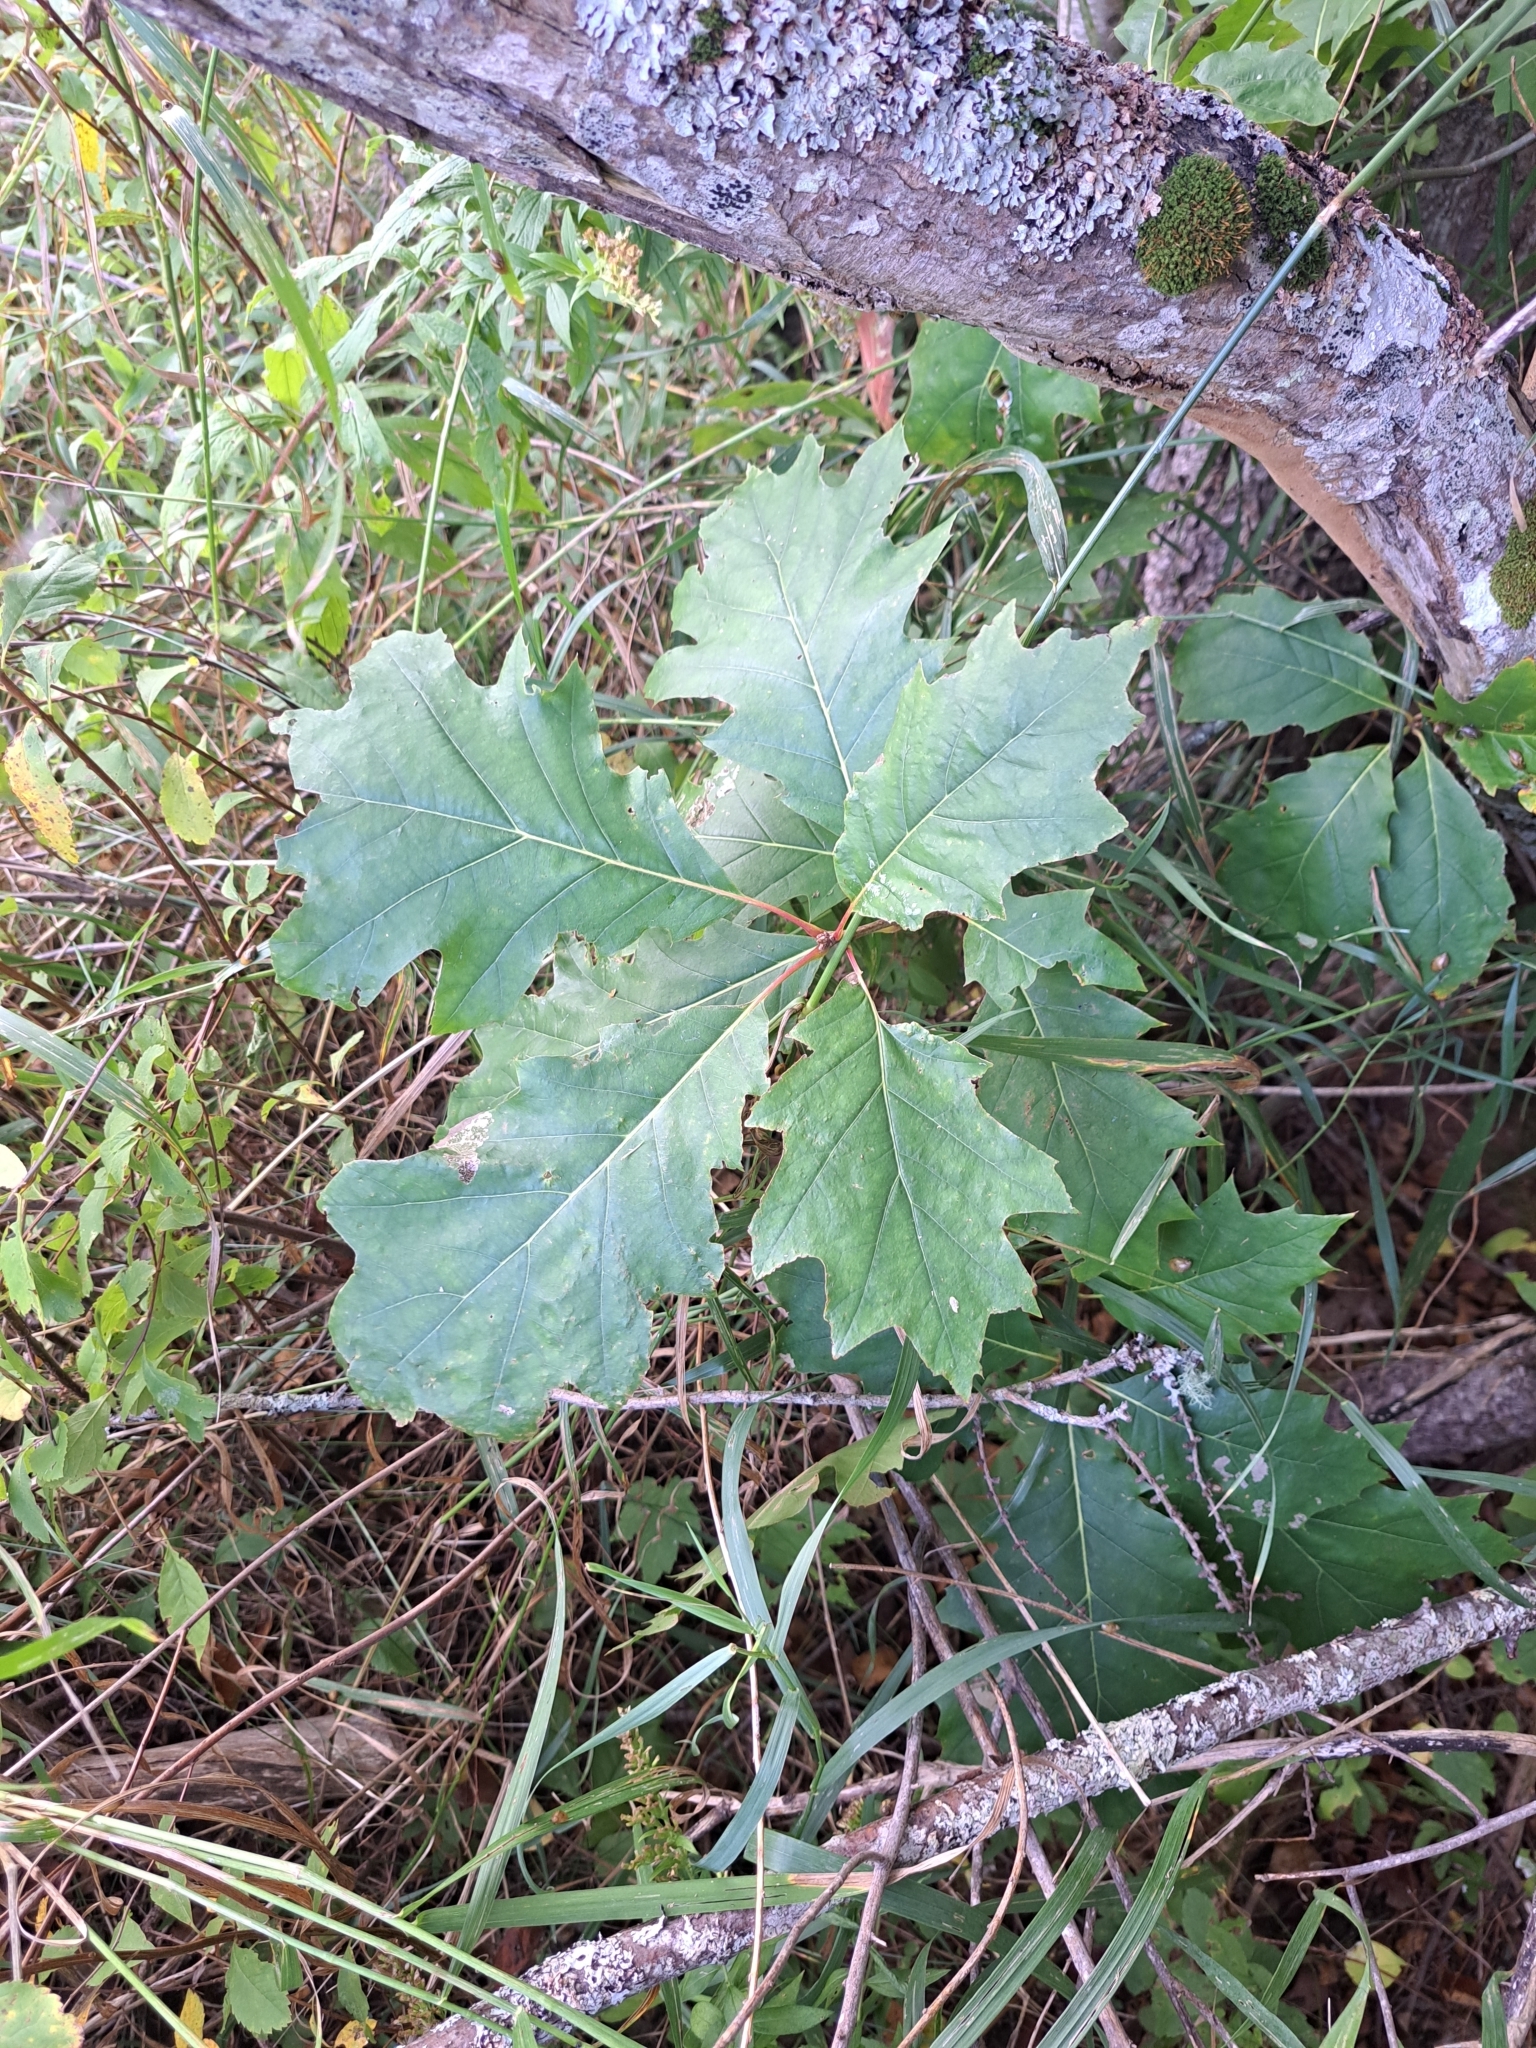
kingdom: Plantae
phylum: Tracheophyta
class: Magnoliopsida
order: Fagales
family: Fagaceae
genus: Quercus
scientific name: Quercus rubra
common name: Red oak
